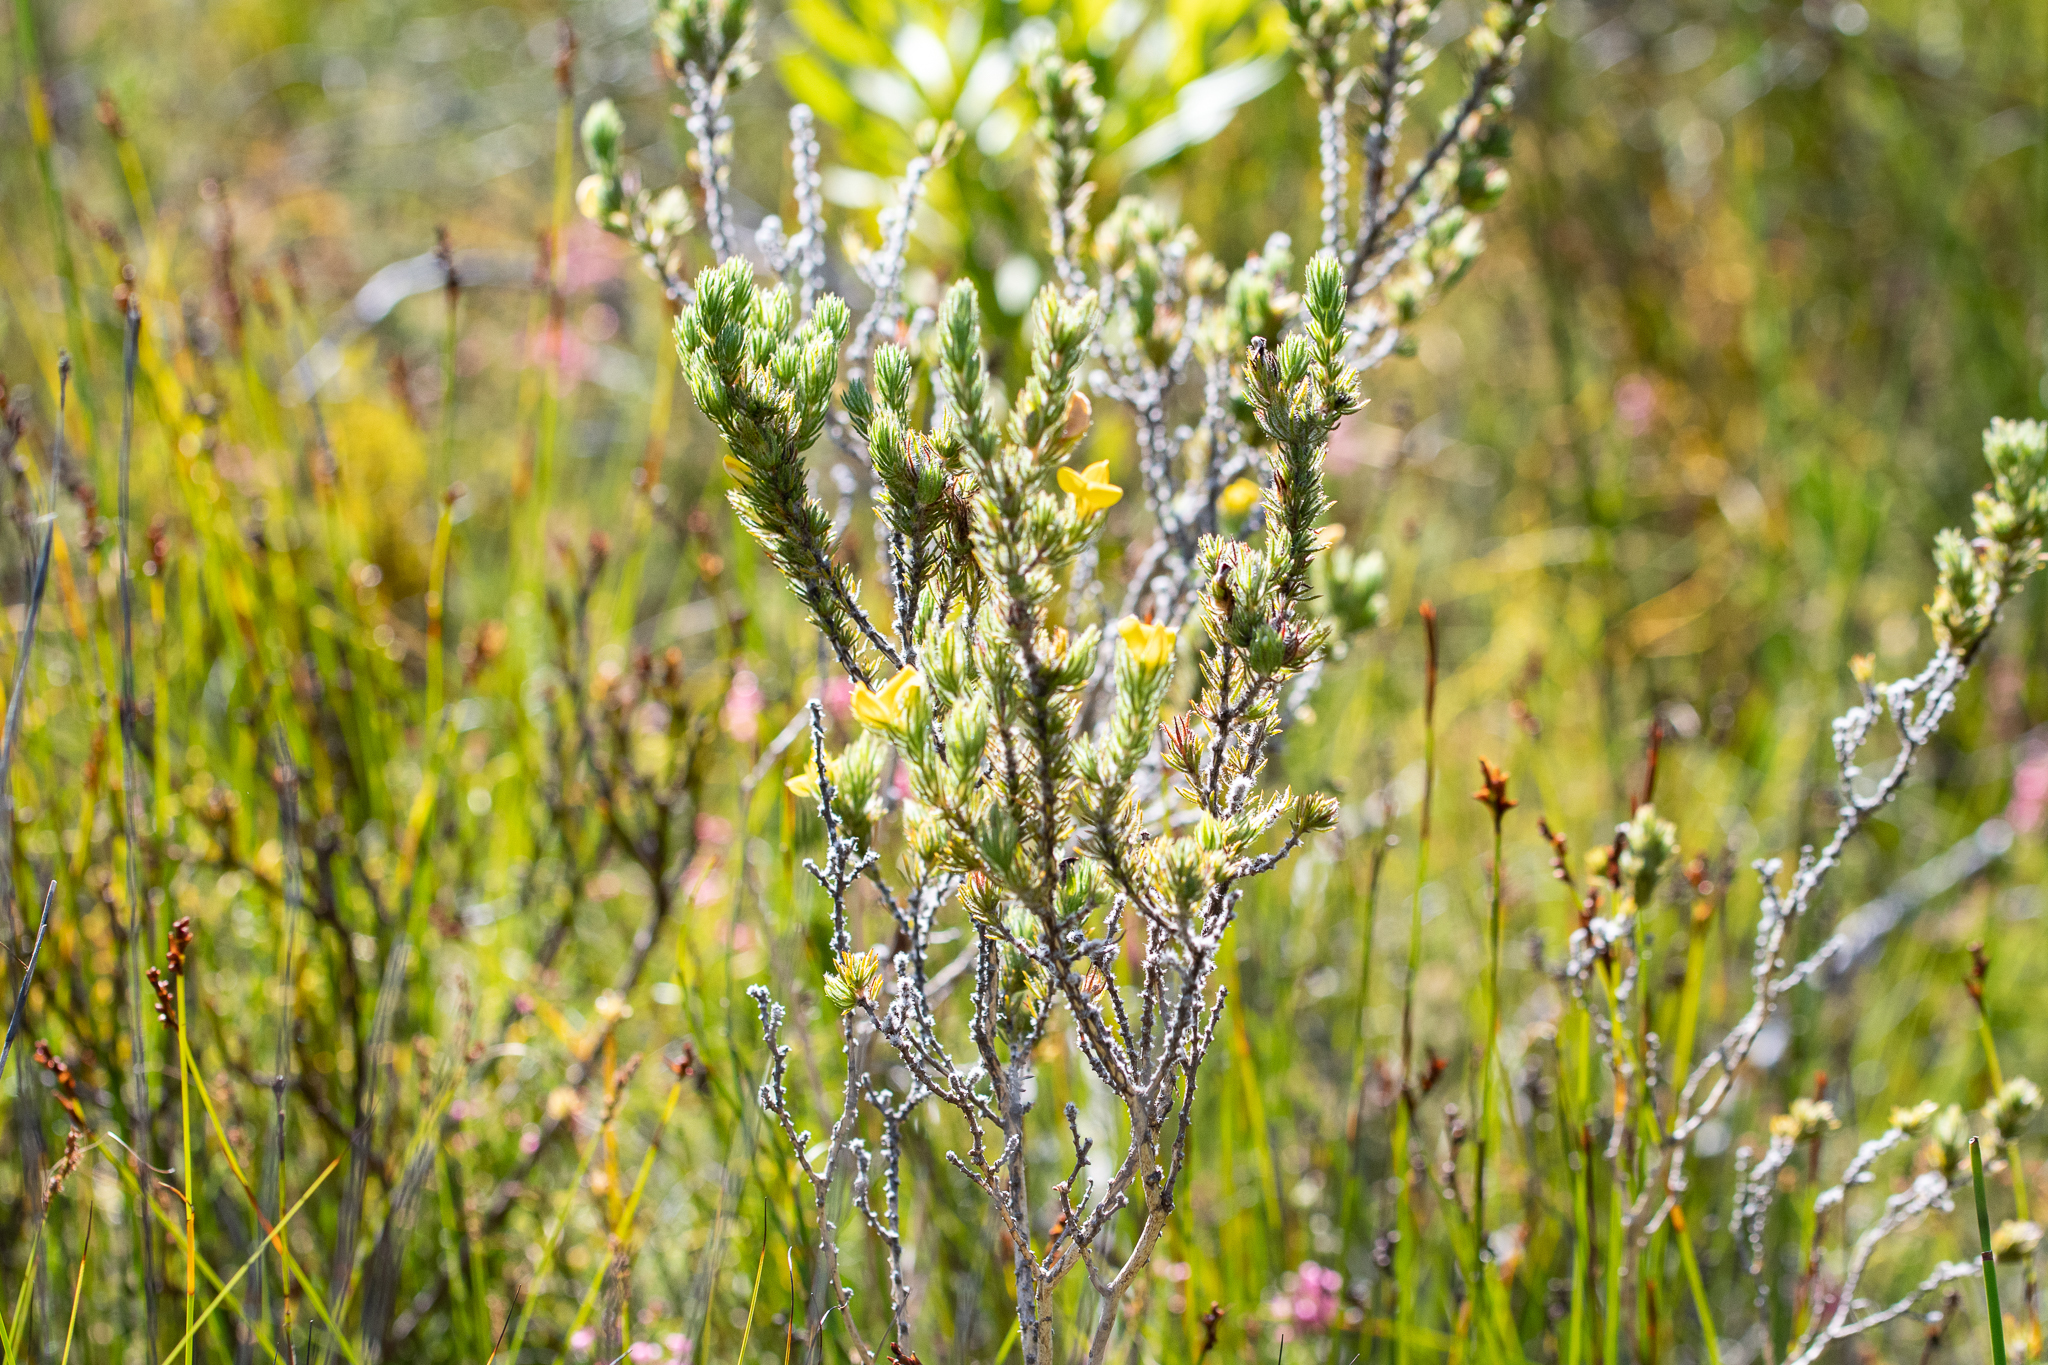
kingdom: Plantae
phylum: Tracheophyta
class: Magnoliopsida
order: Fabales
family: Fabaceae
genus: Aspalathus
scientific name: Aspalathus ciliaris
